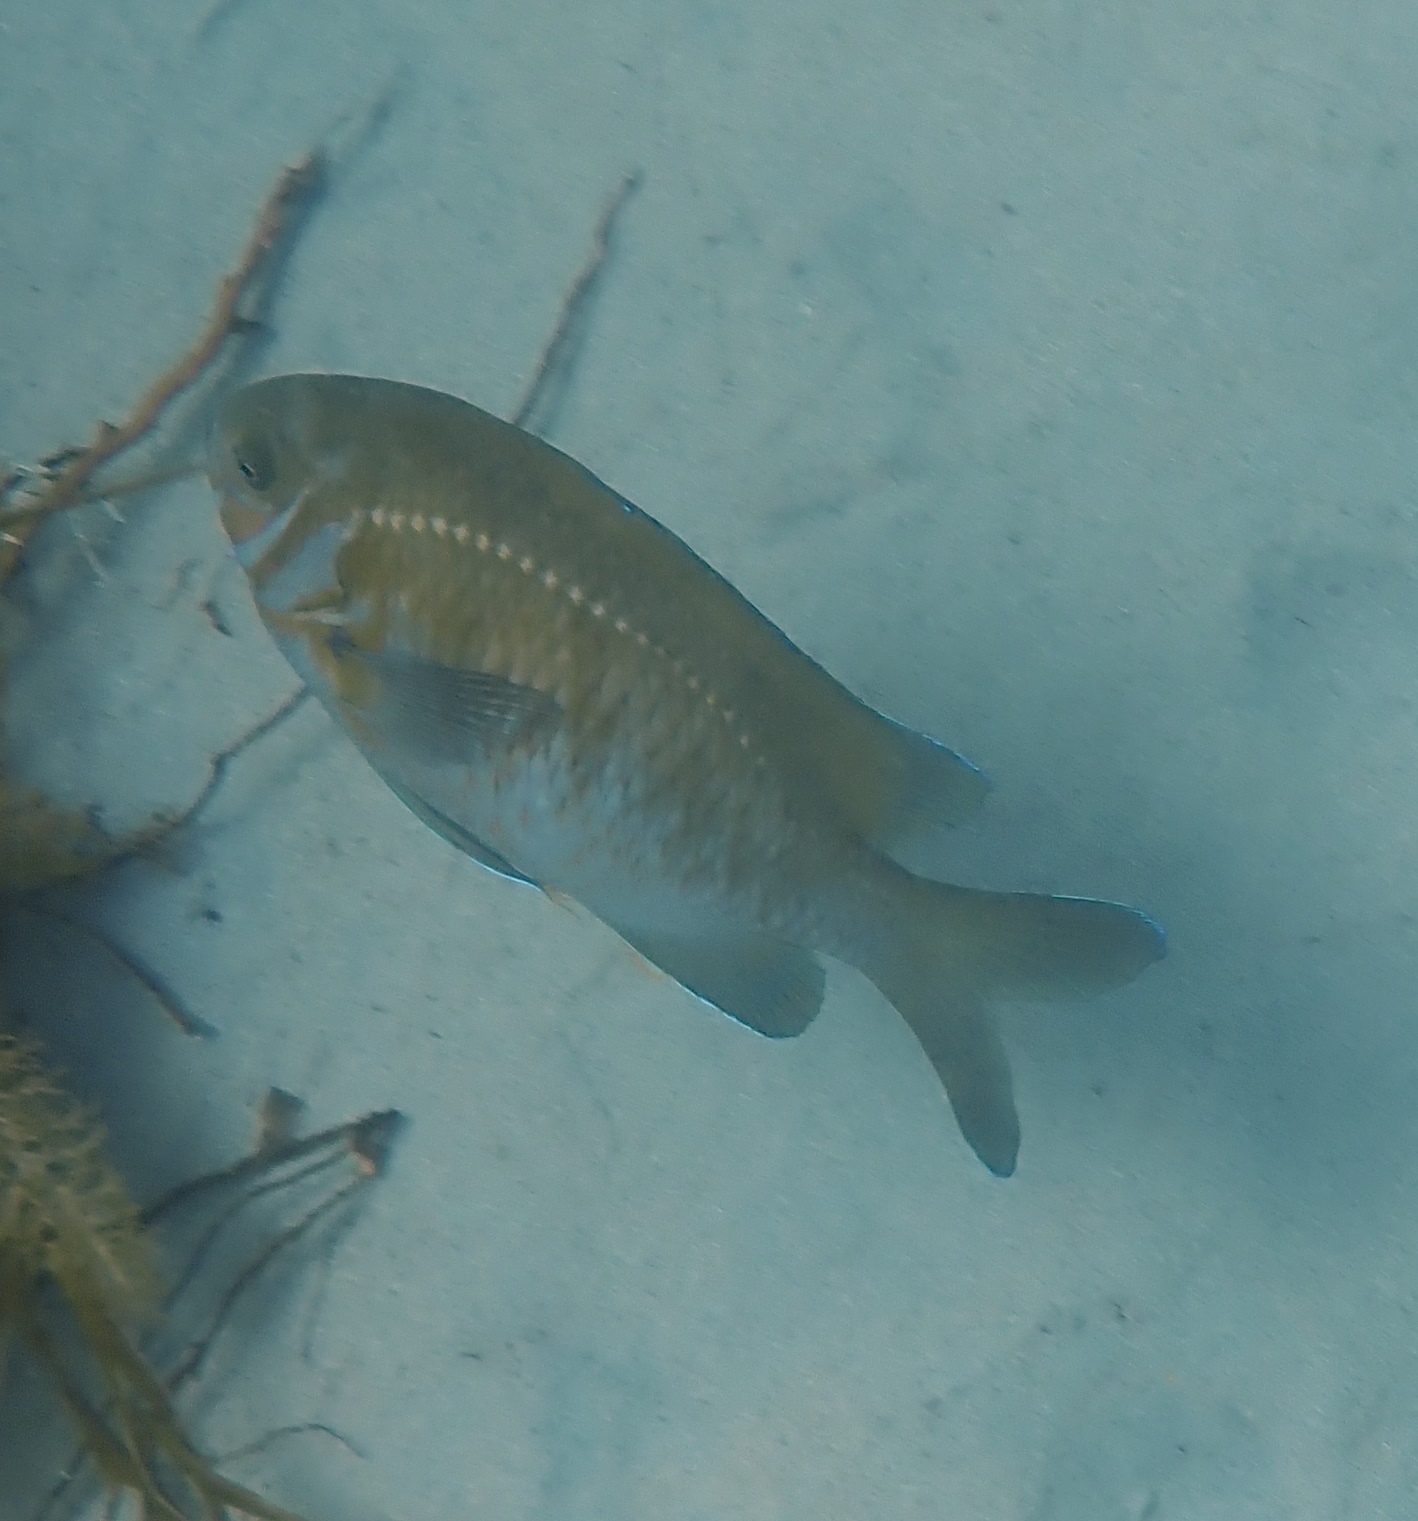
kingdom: Animalia
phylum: Chordata
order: Perciformes
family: Pomacentridae
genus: Parma
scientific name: Parma victoriae
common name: Rock perch
